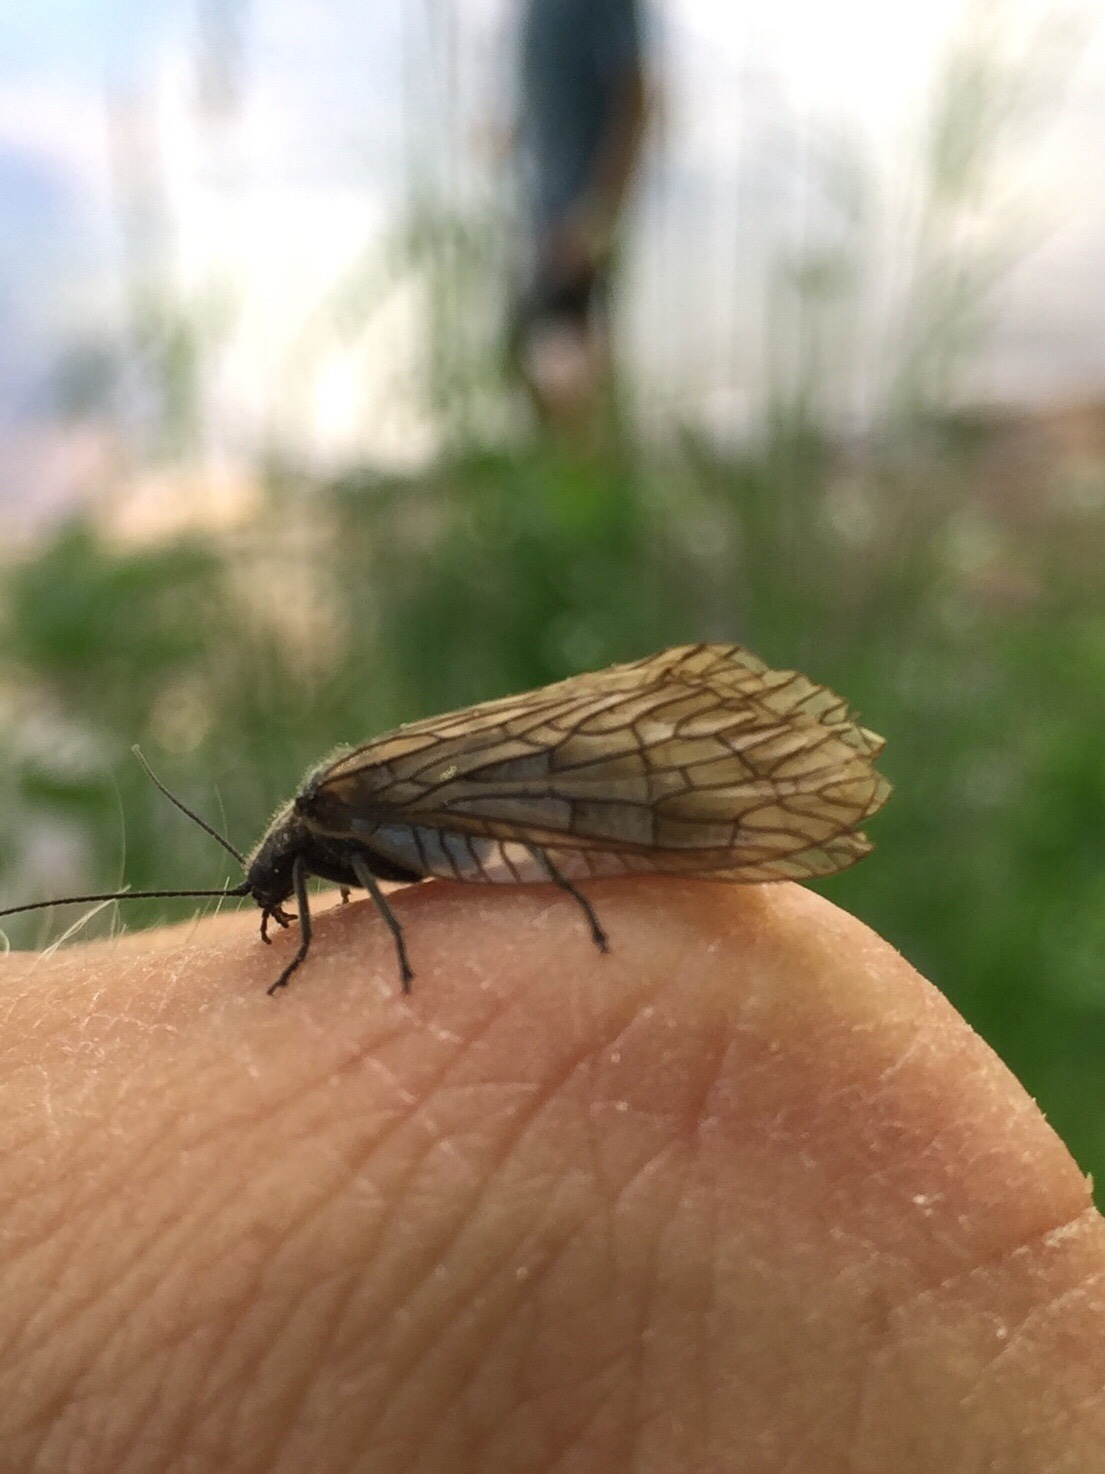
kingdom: Animalia
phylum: Arthropoda
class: Insecta
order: Megaloptera
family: Sialidae
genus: Sialis
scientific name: Sialis
